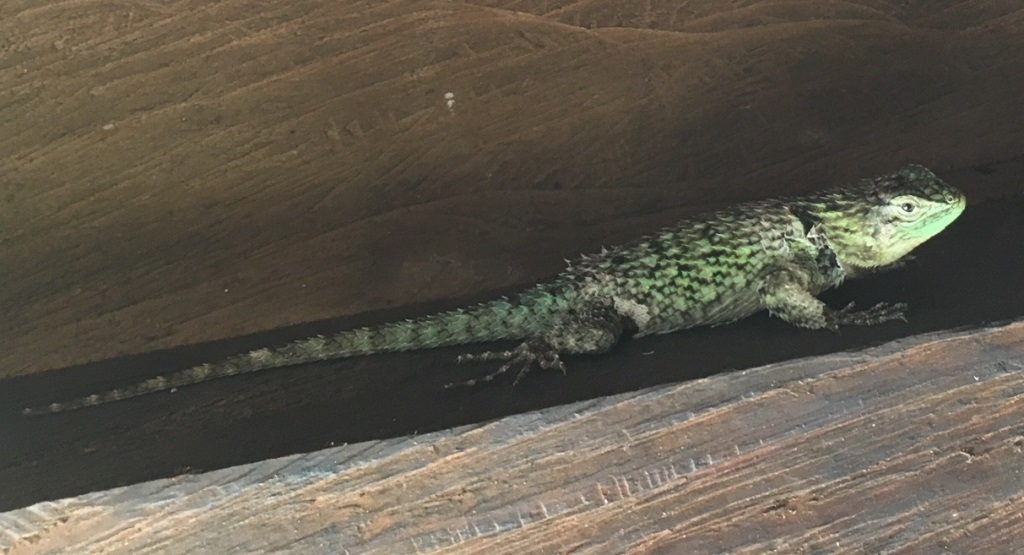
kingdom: Animalia
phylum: Chordata
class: Squamata
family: Phrynosomatidae
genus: Sceloporus
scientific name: Sceloporus smaragdinus
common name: Bocourt’s emerald lizard
